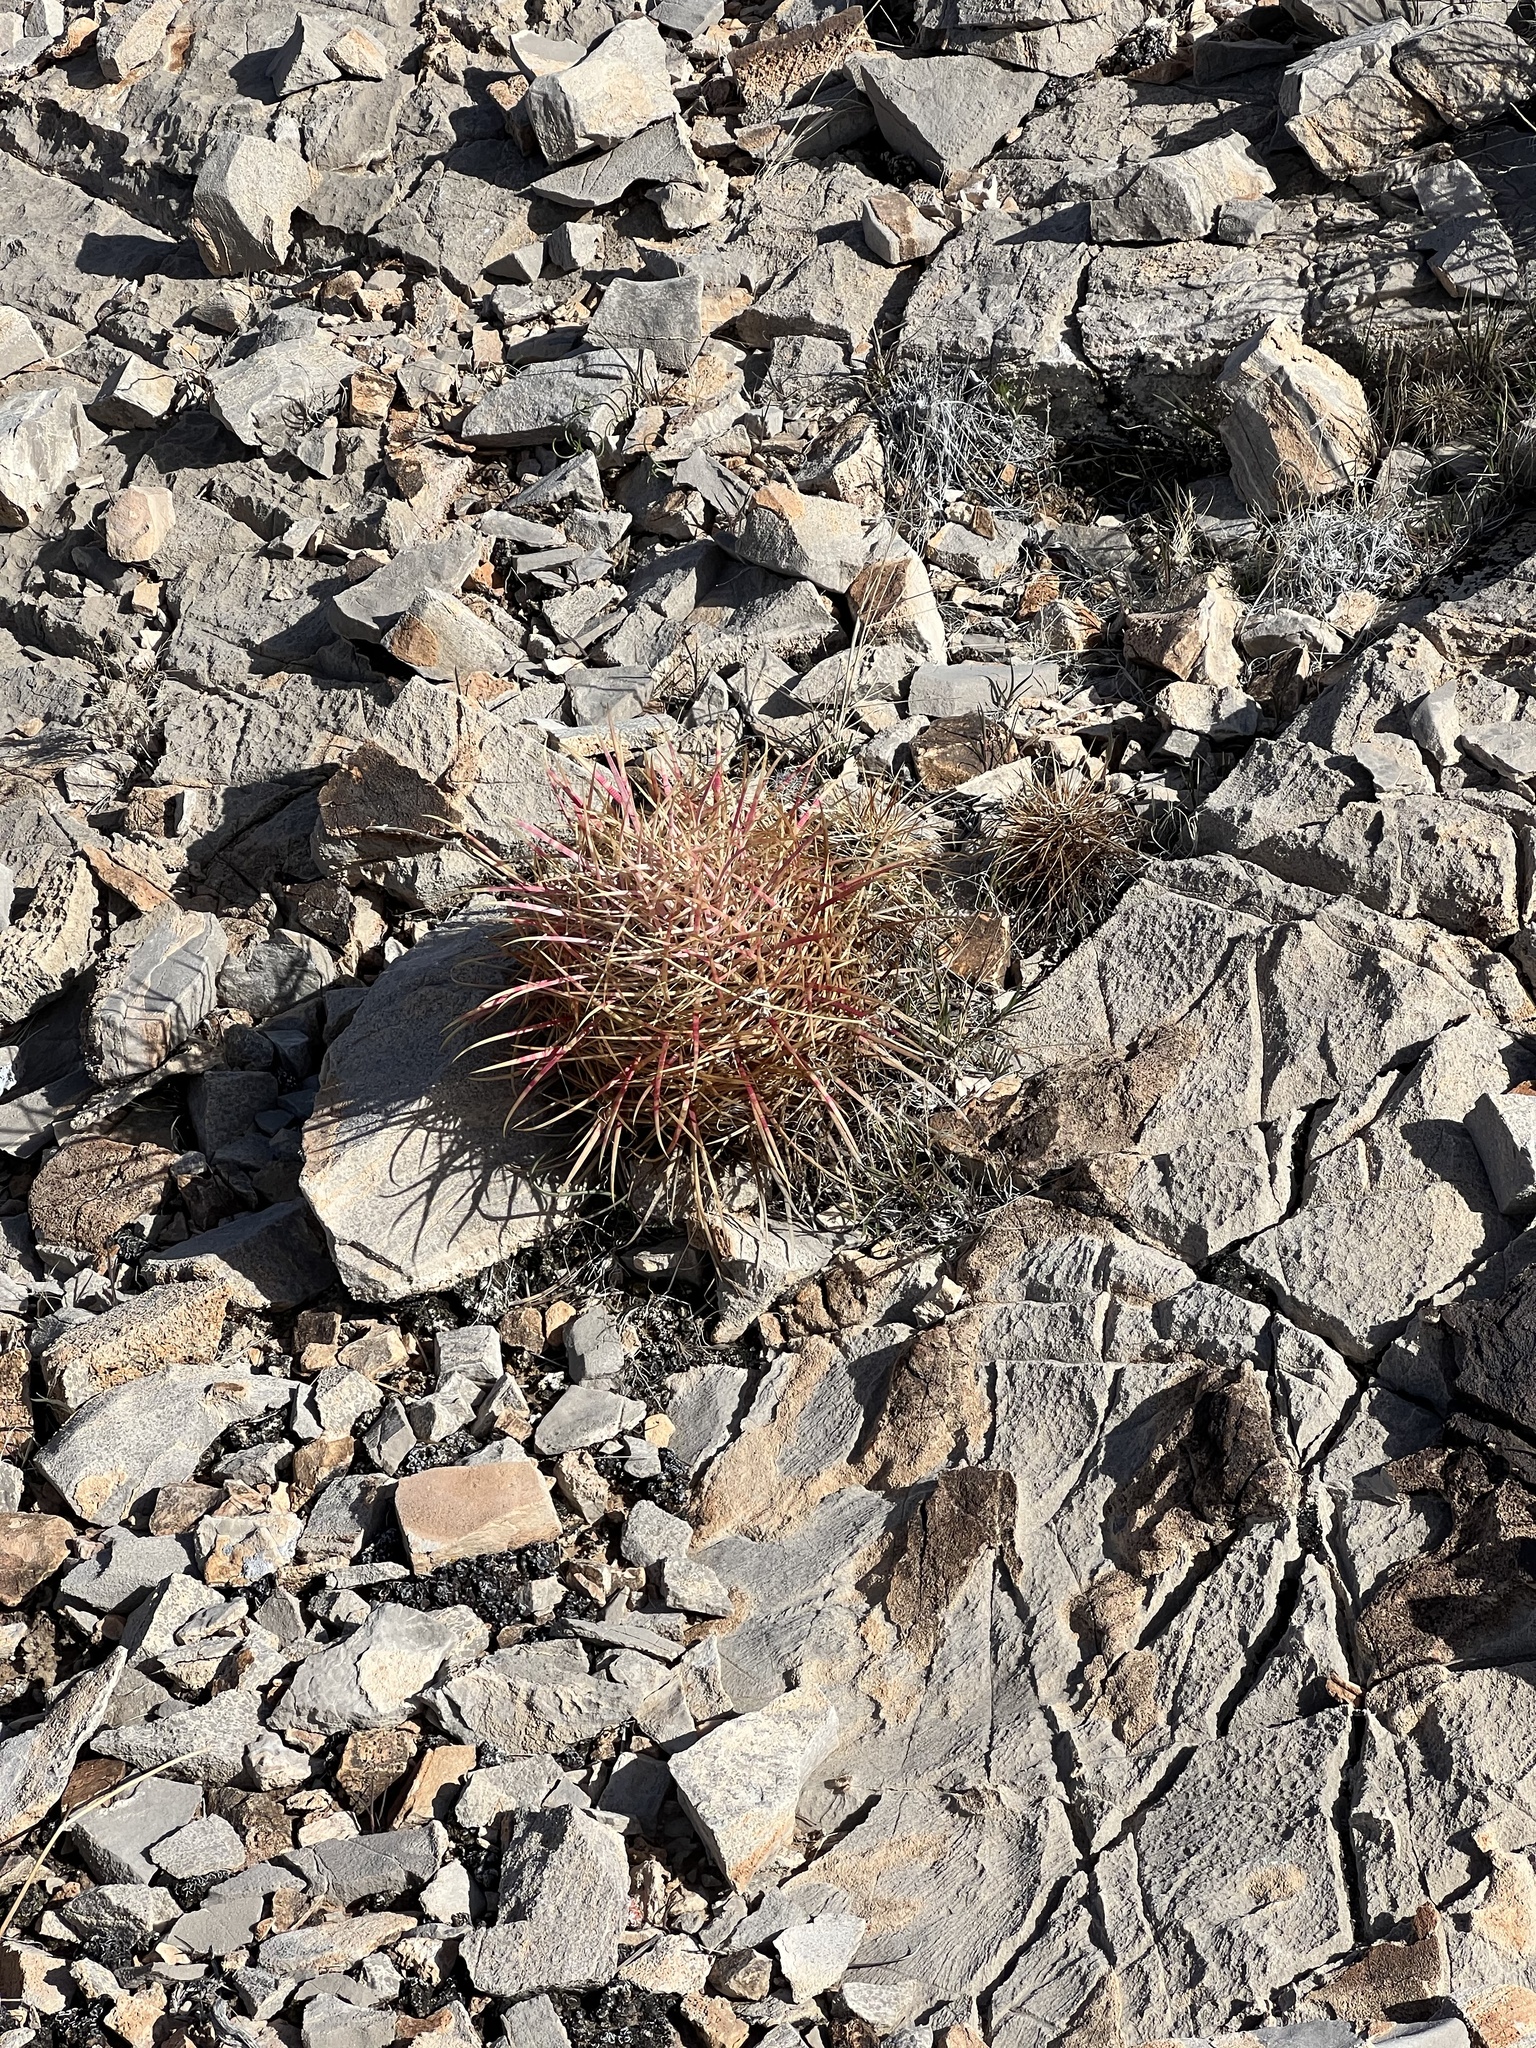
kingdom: Plantae
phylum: Tracheophyta
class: Magnoliopsida
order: Caryophyllales
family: Cactaceae
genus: Ferocactus
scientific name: Ferocactus cylindraceus
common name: California barrel cactus
